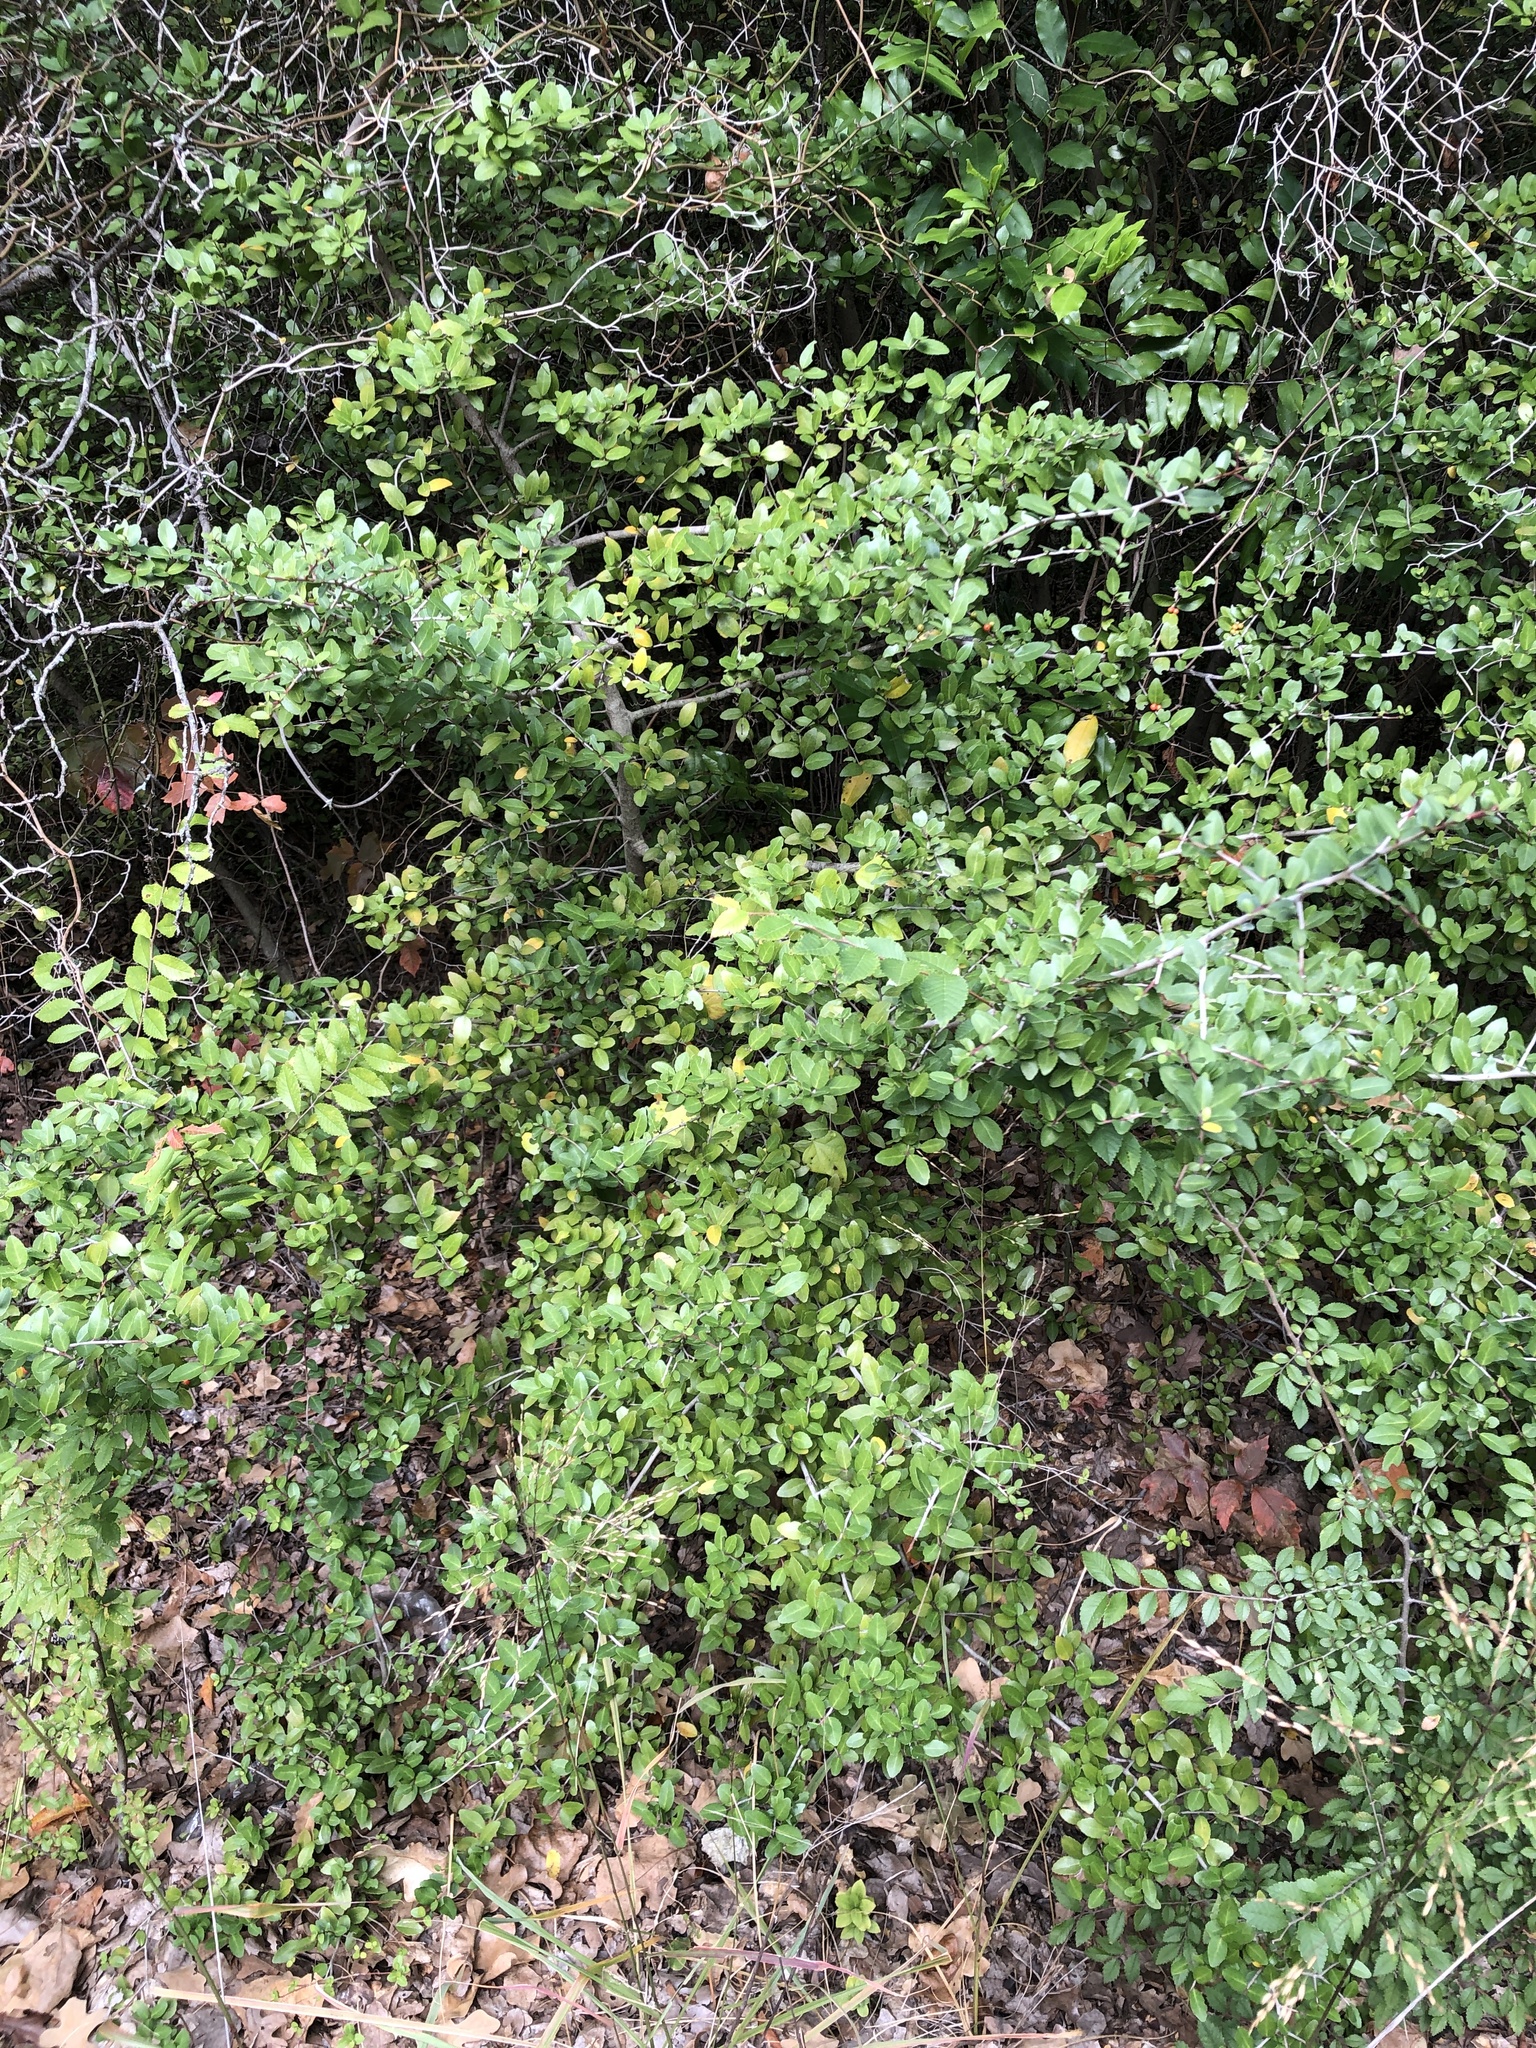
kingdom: Plantae
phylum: Tracheophyta
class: Magnoliopsida
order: Aquifoliales
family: Aquifoliaceae
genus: Ilex
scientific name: Ilex vomitoria
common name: Yaupon holly
